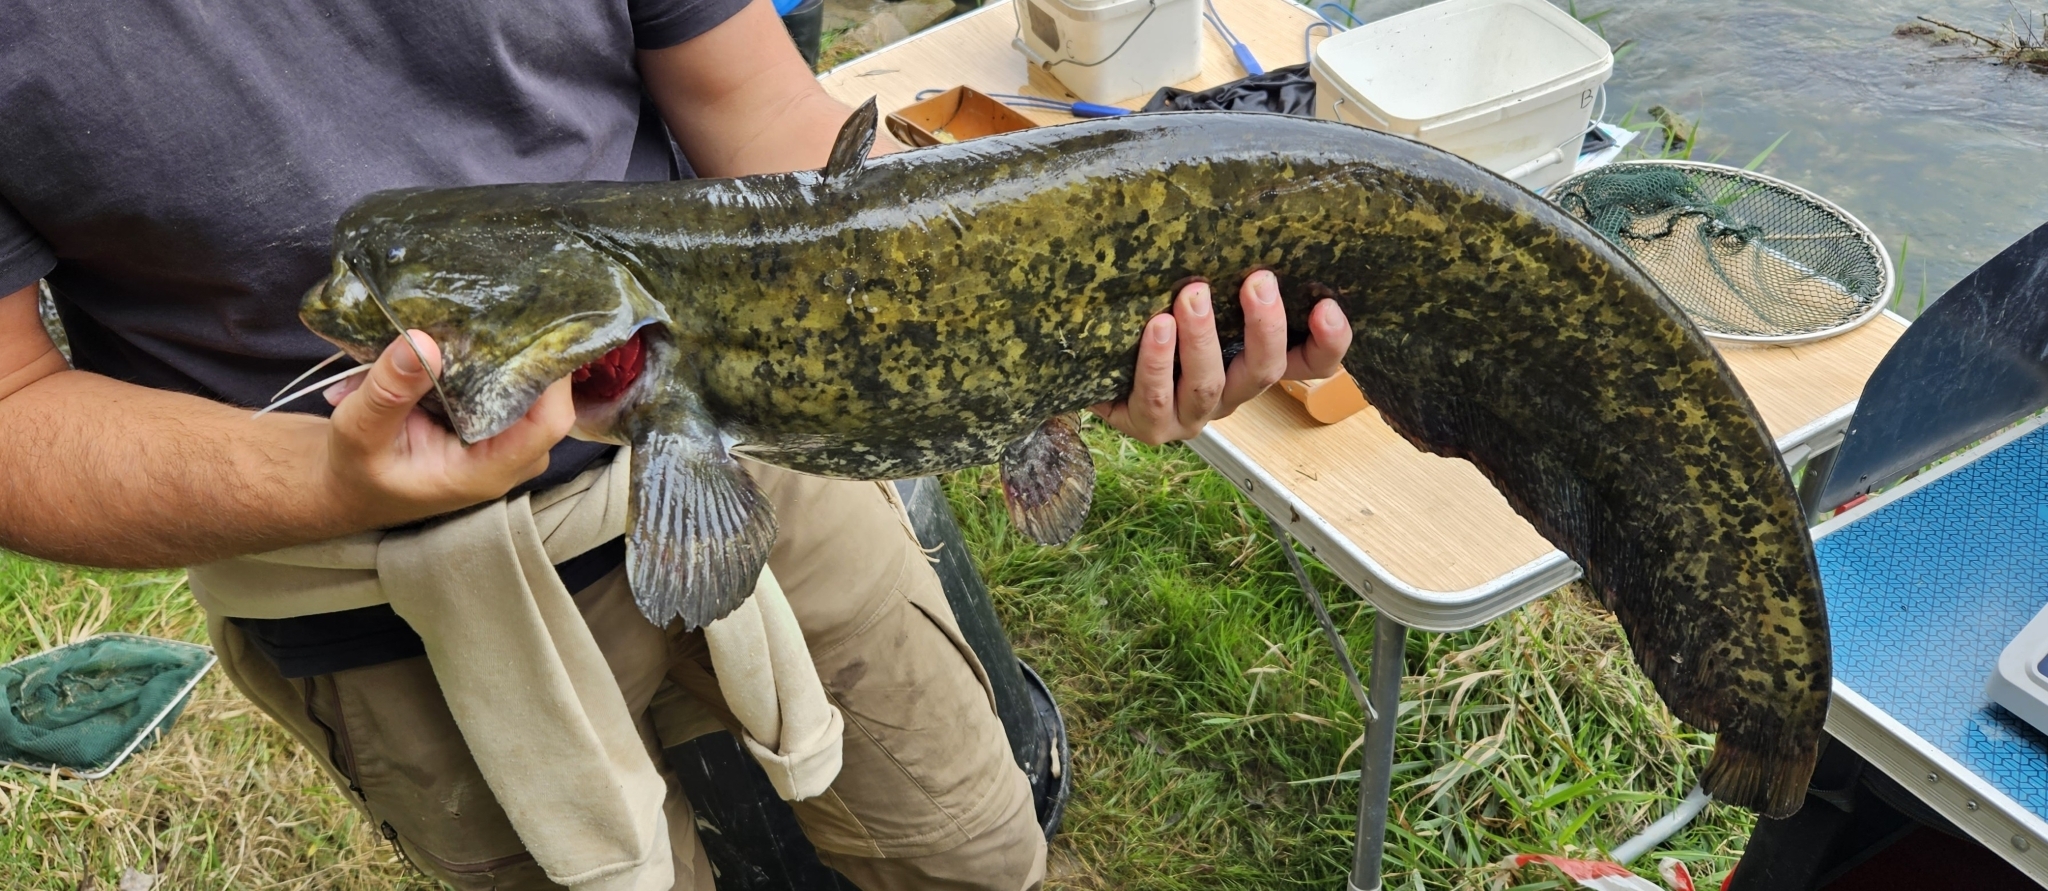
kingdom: Animalia
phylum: Chordata
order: Siluriformes
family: Siluridae
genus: Silurus
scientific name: Silurus glanis
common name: Wels
